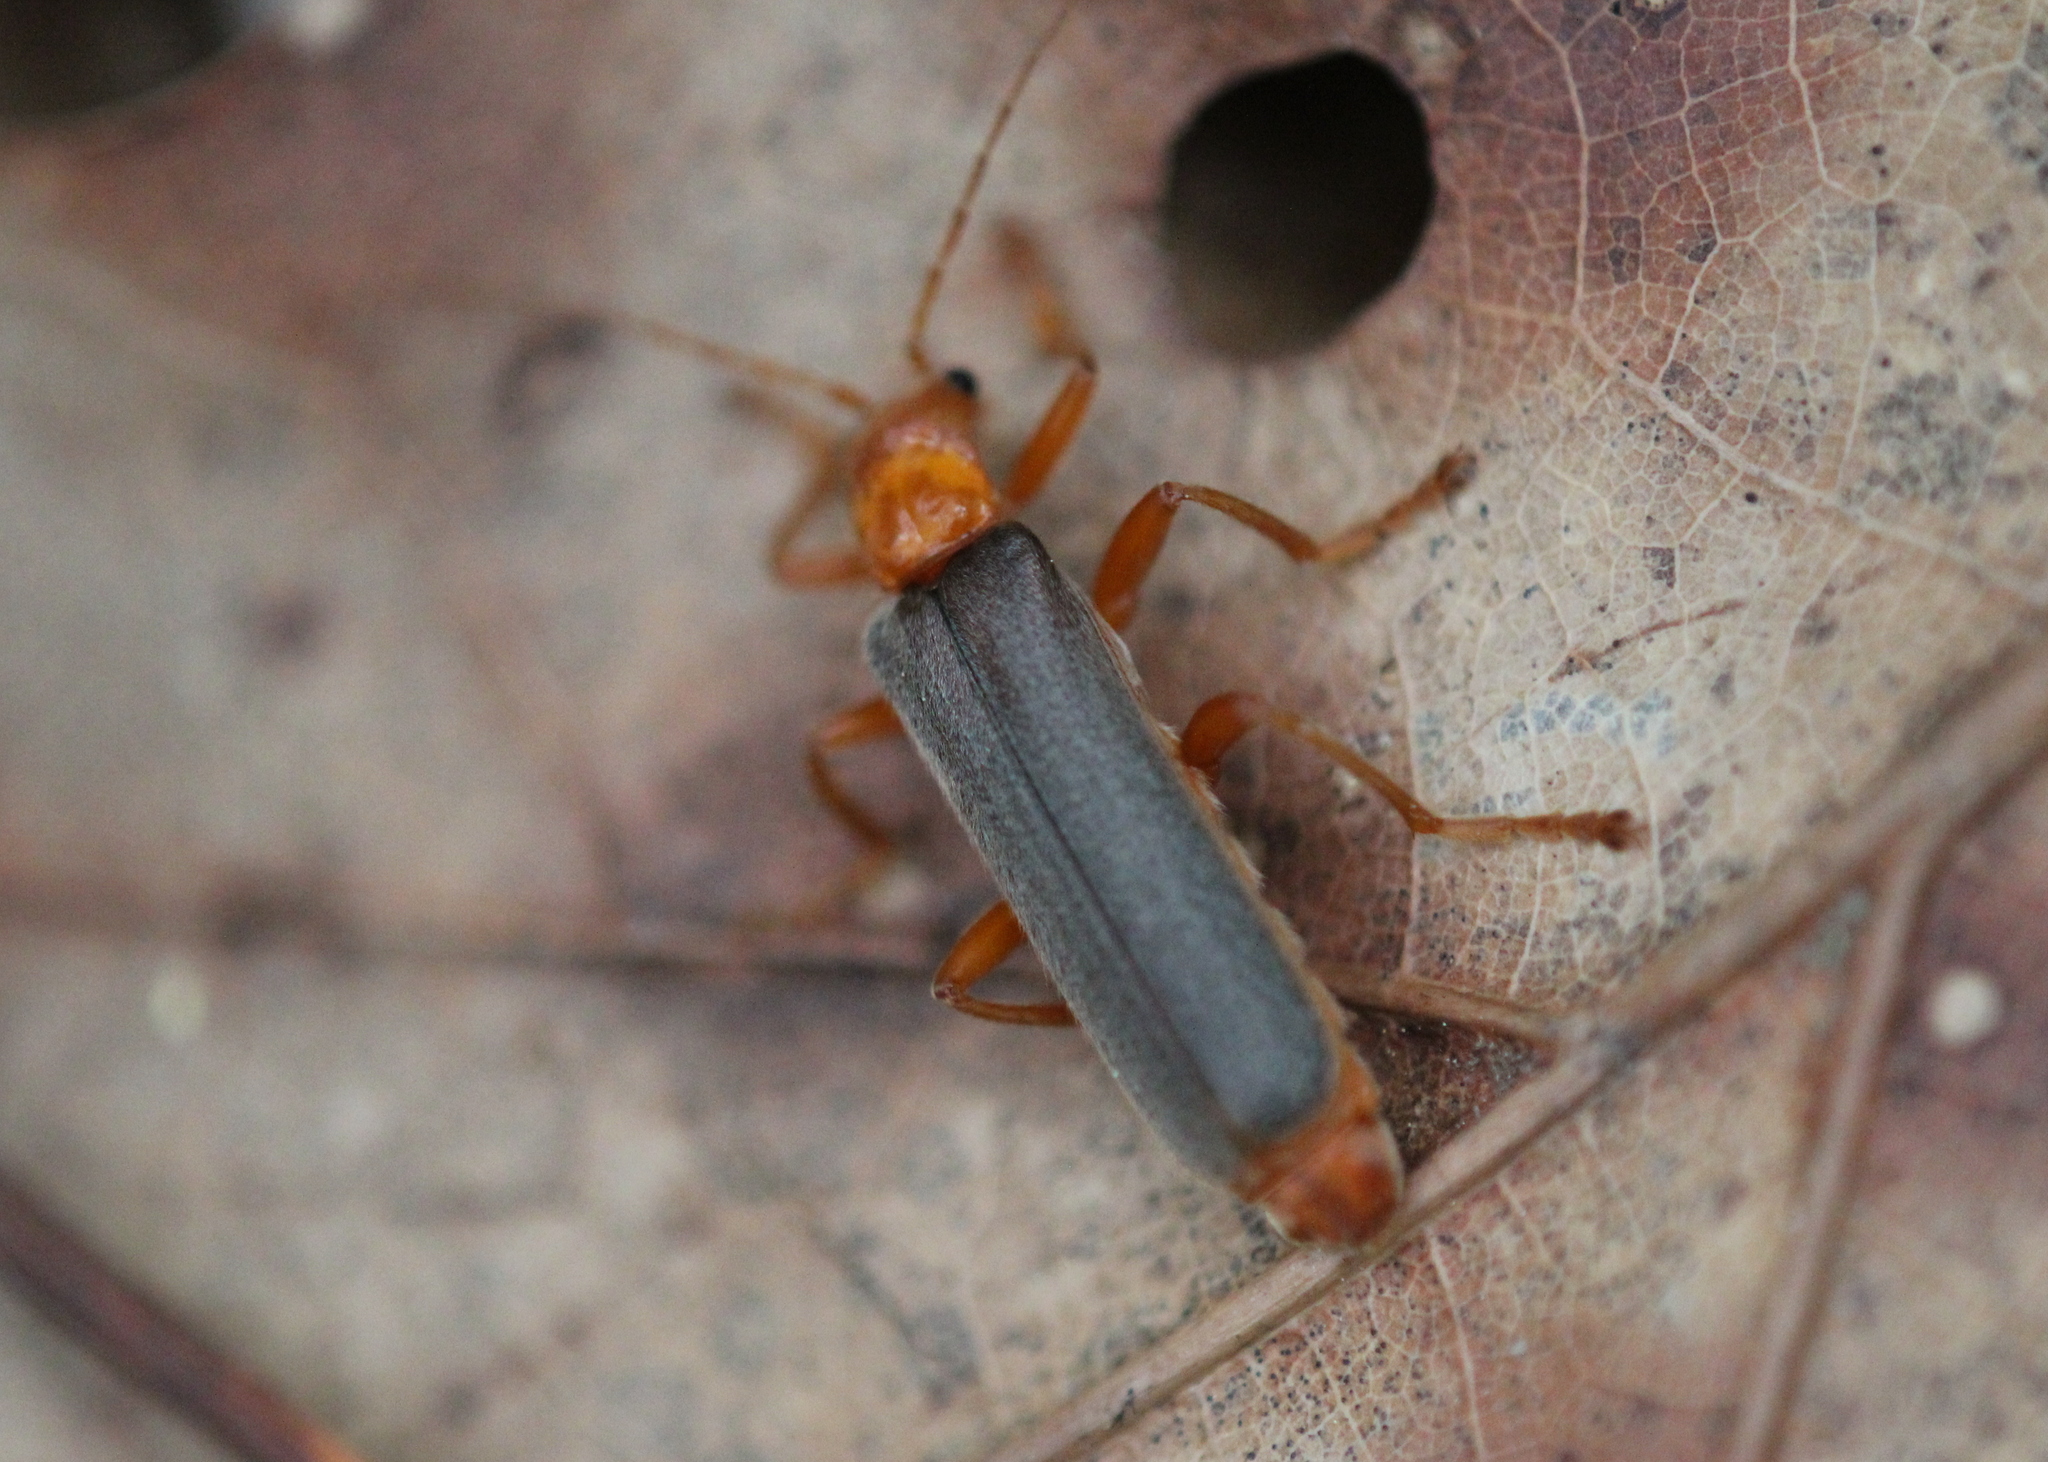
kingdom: Animalia
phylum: Arthropoda
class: Insecta
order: Coleoptera
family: Cantharidae
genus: Pacificanthia
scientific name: Pacificanthia rotundicollis
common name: Brown leatherwing beetle
